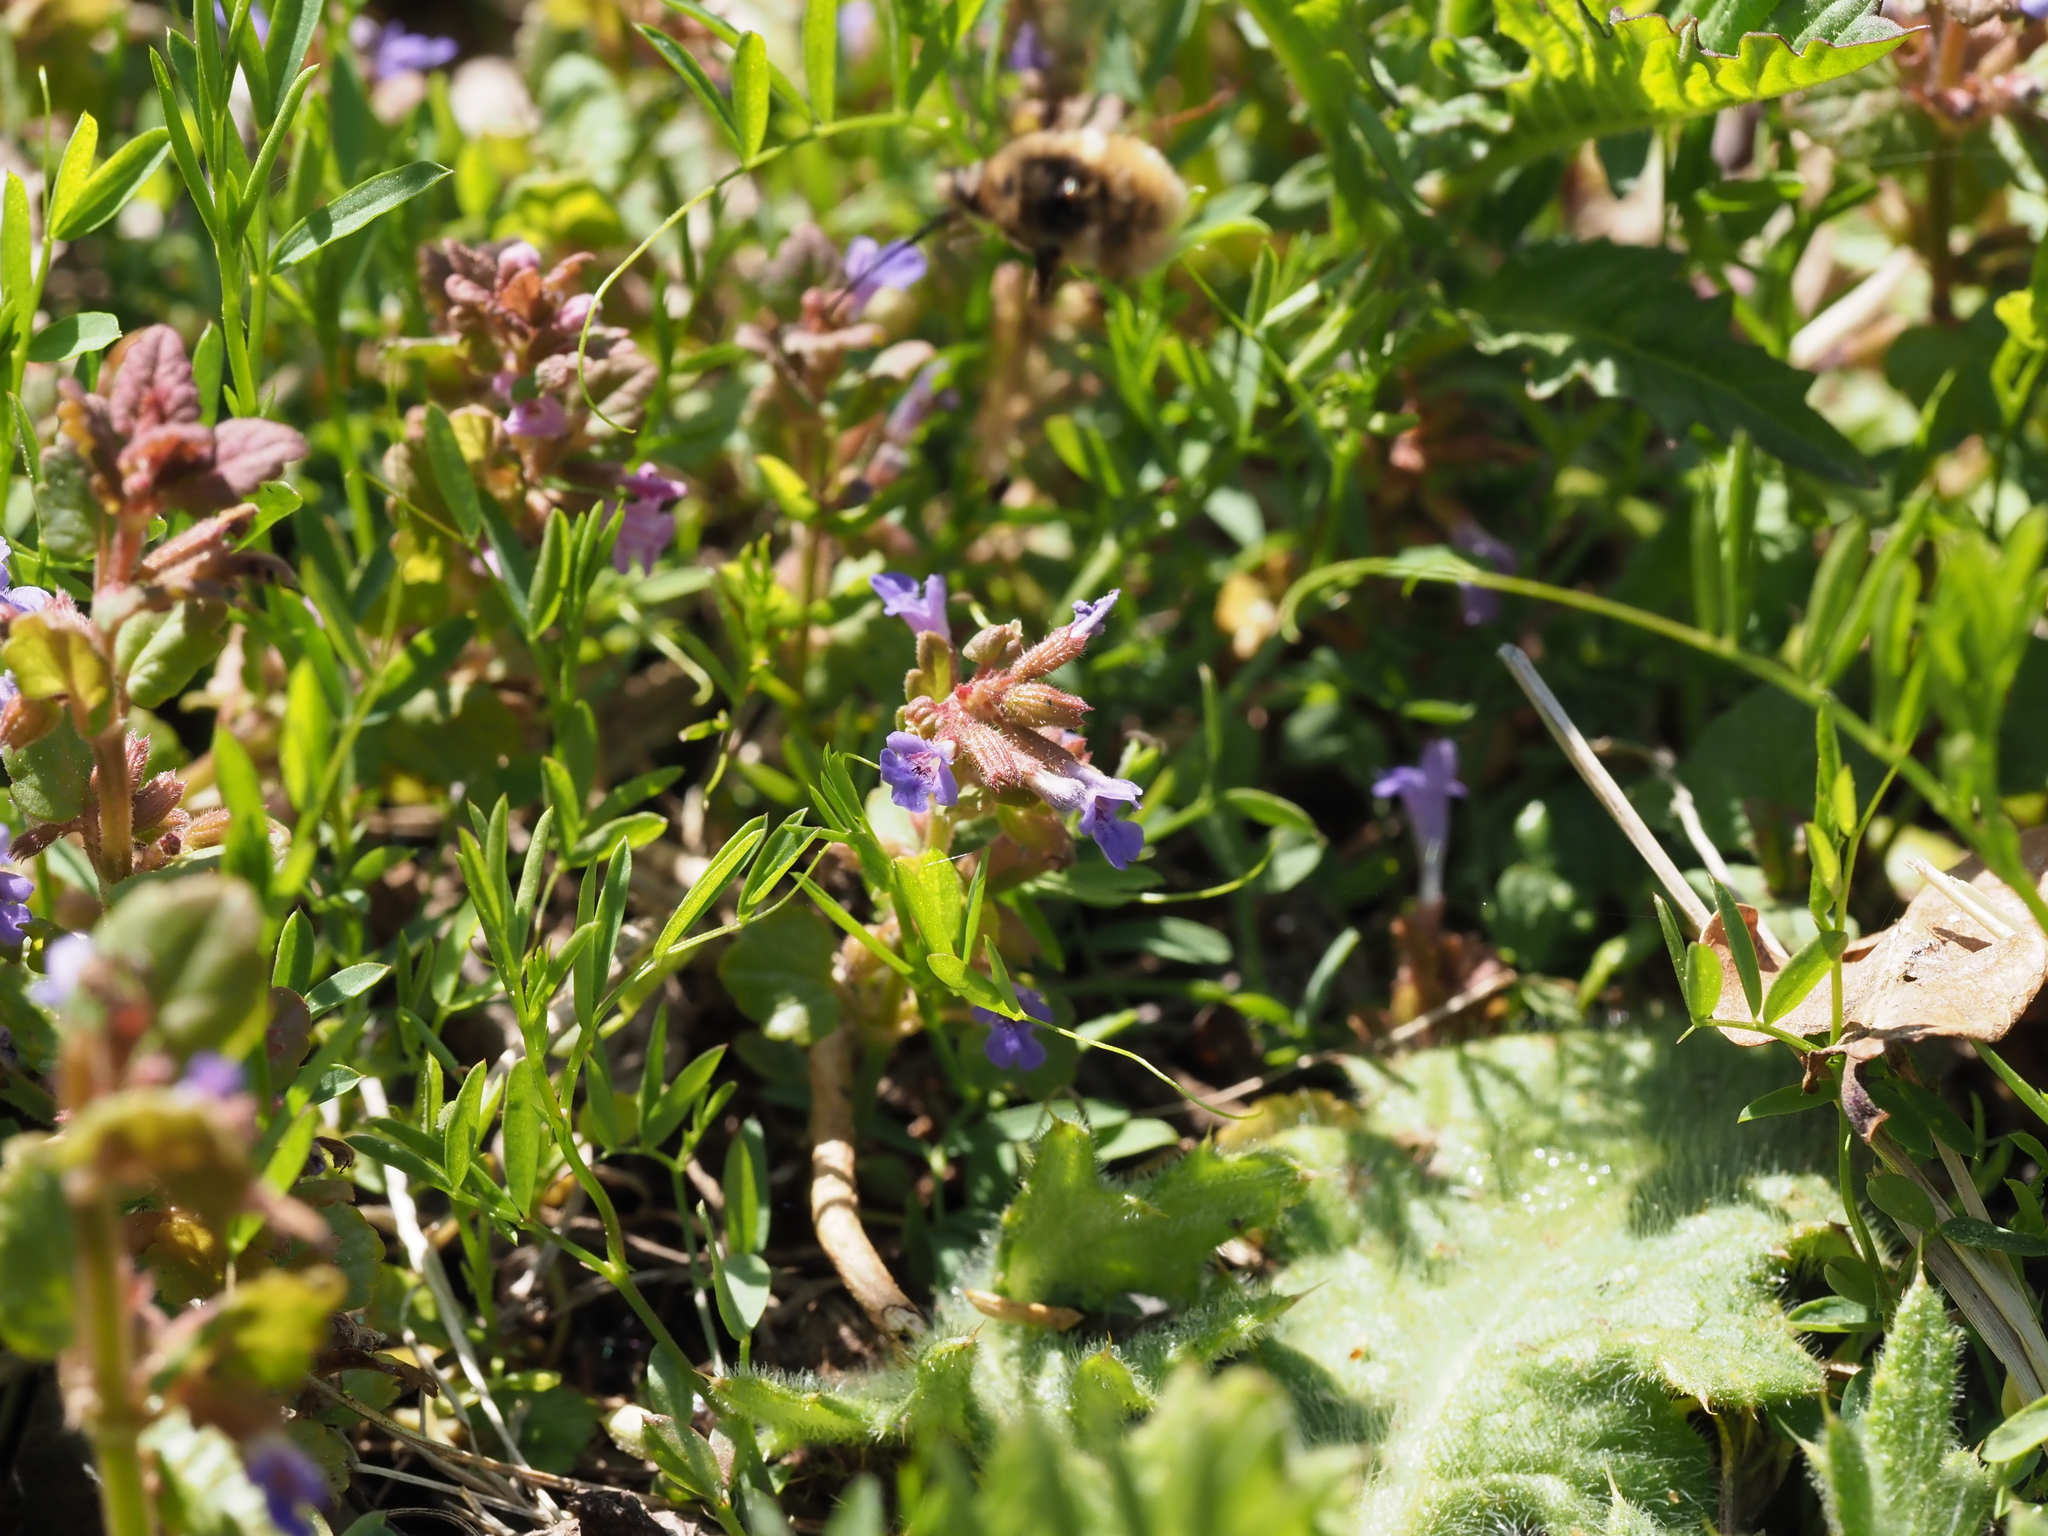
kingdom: Plantae
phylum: Tracheophyta
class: Magnoliopsida
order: Lamiales
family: Lamiaceae
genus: Glechoma
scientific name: Glechoma hederacea
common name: Ground ivy
